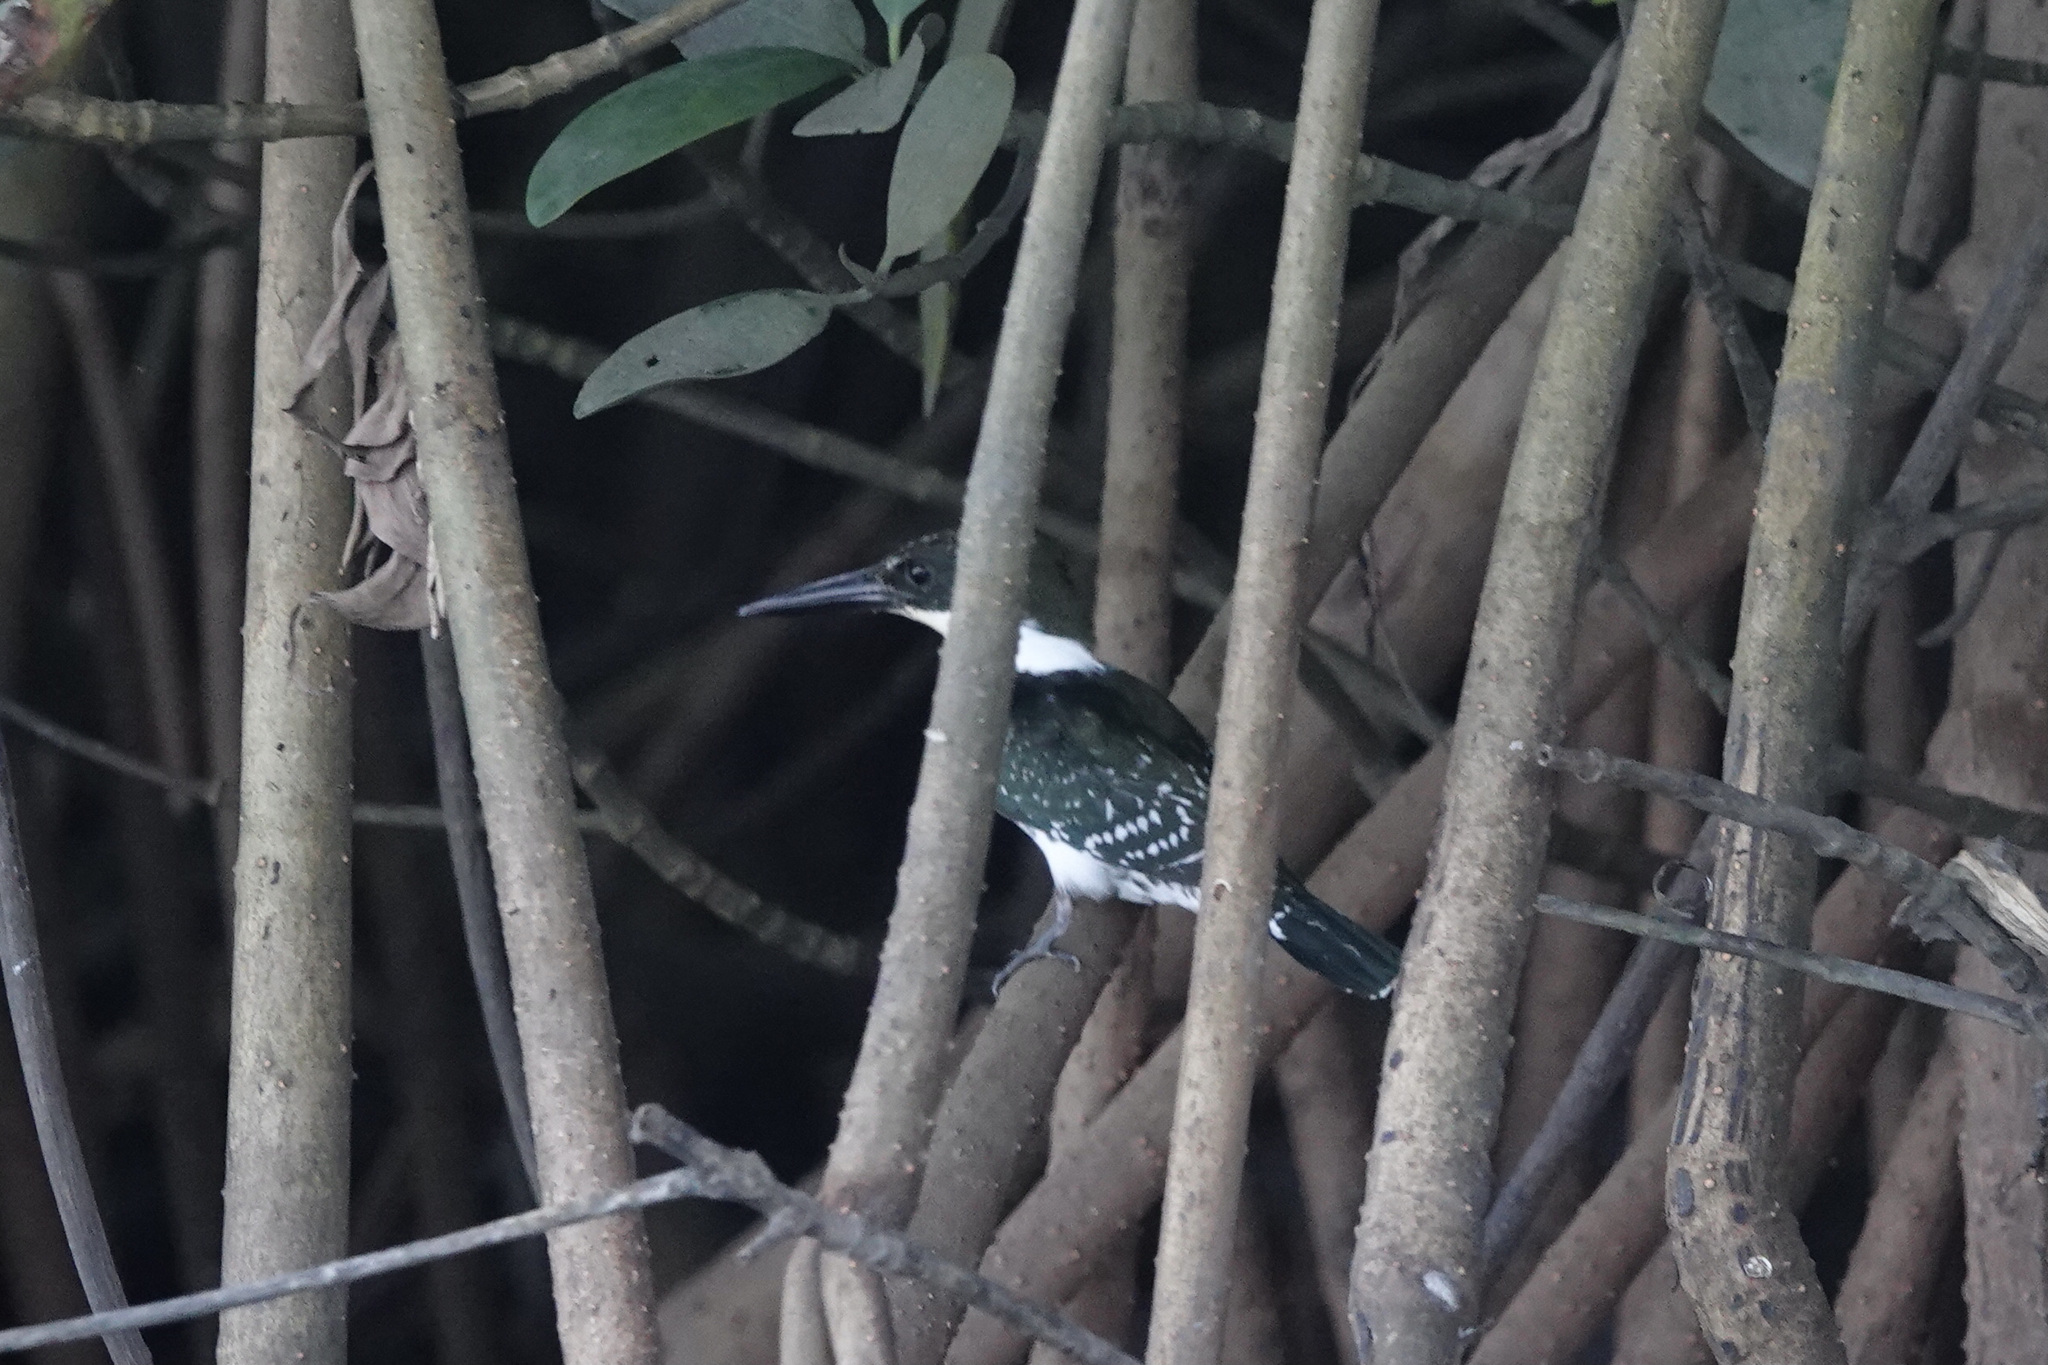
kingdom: Animalia
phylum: Chordata
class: Aves
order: Coraciiformes
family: Alcedinidae
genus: Chloroceryle
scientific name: Chloroceryle americana
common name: Green kingfisher
